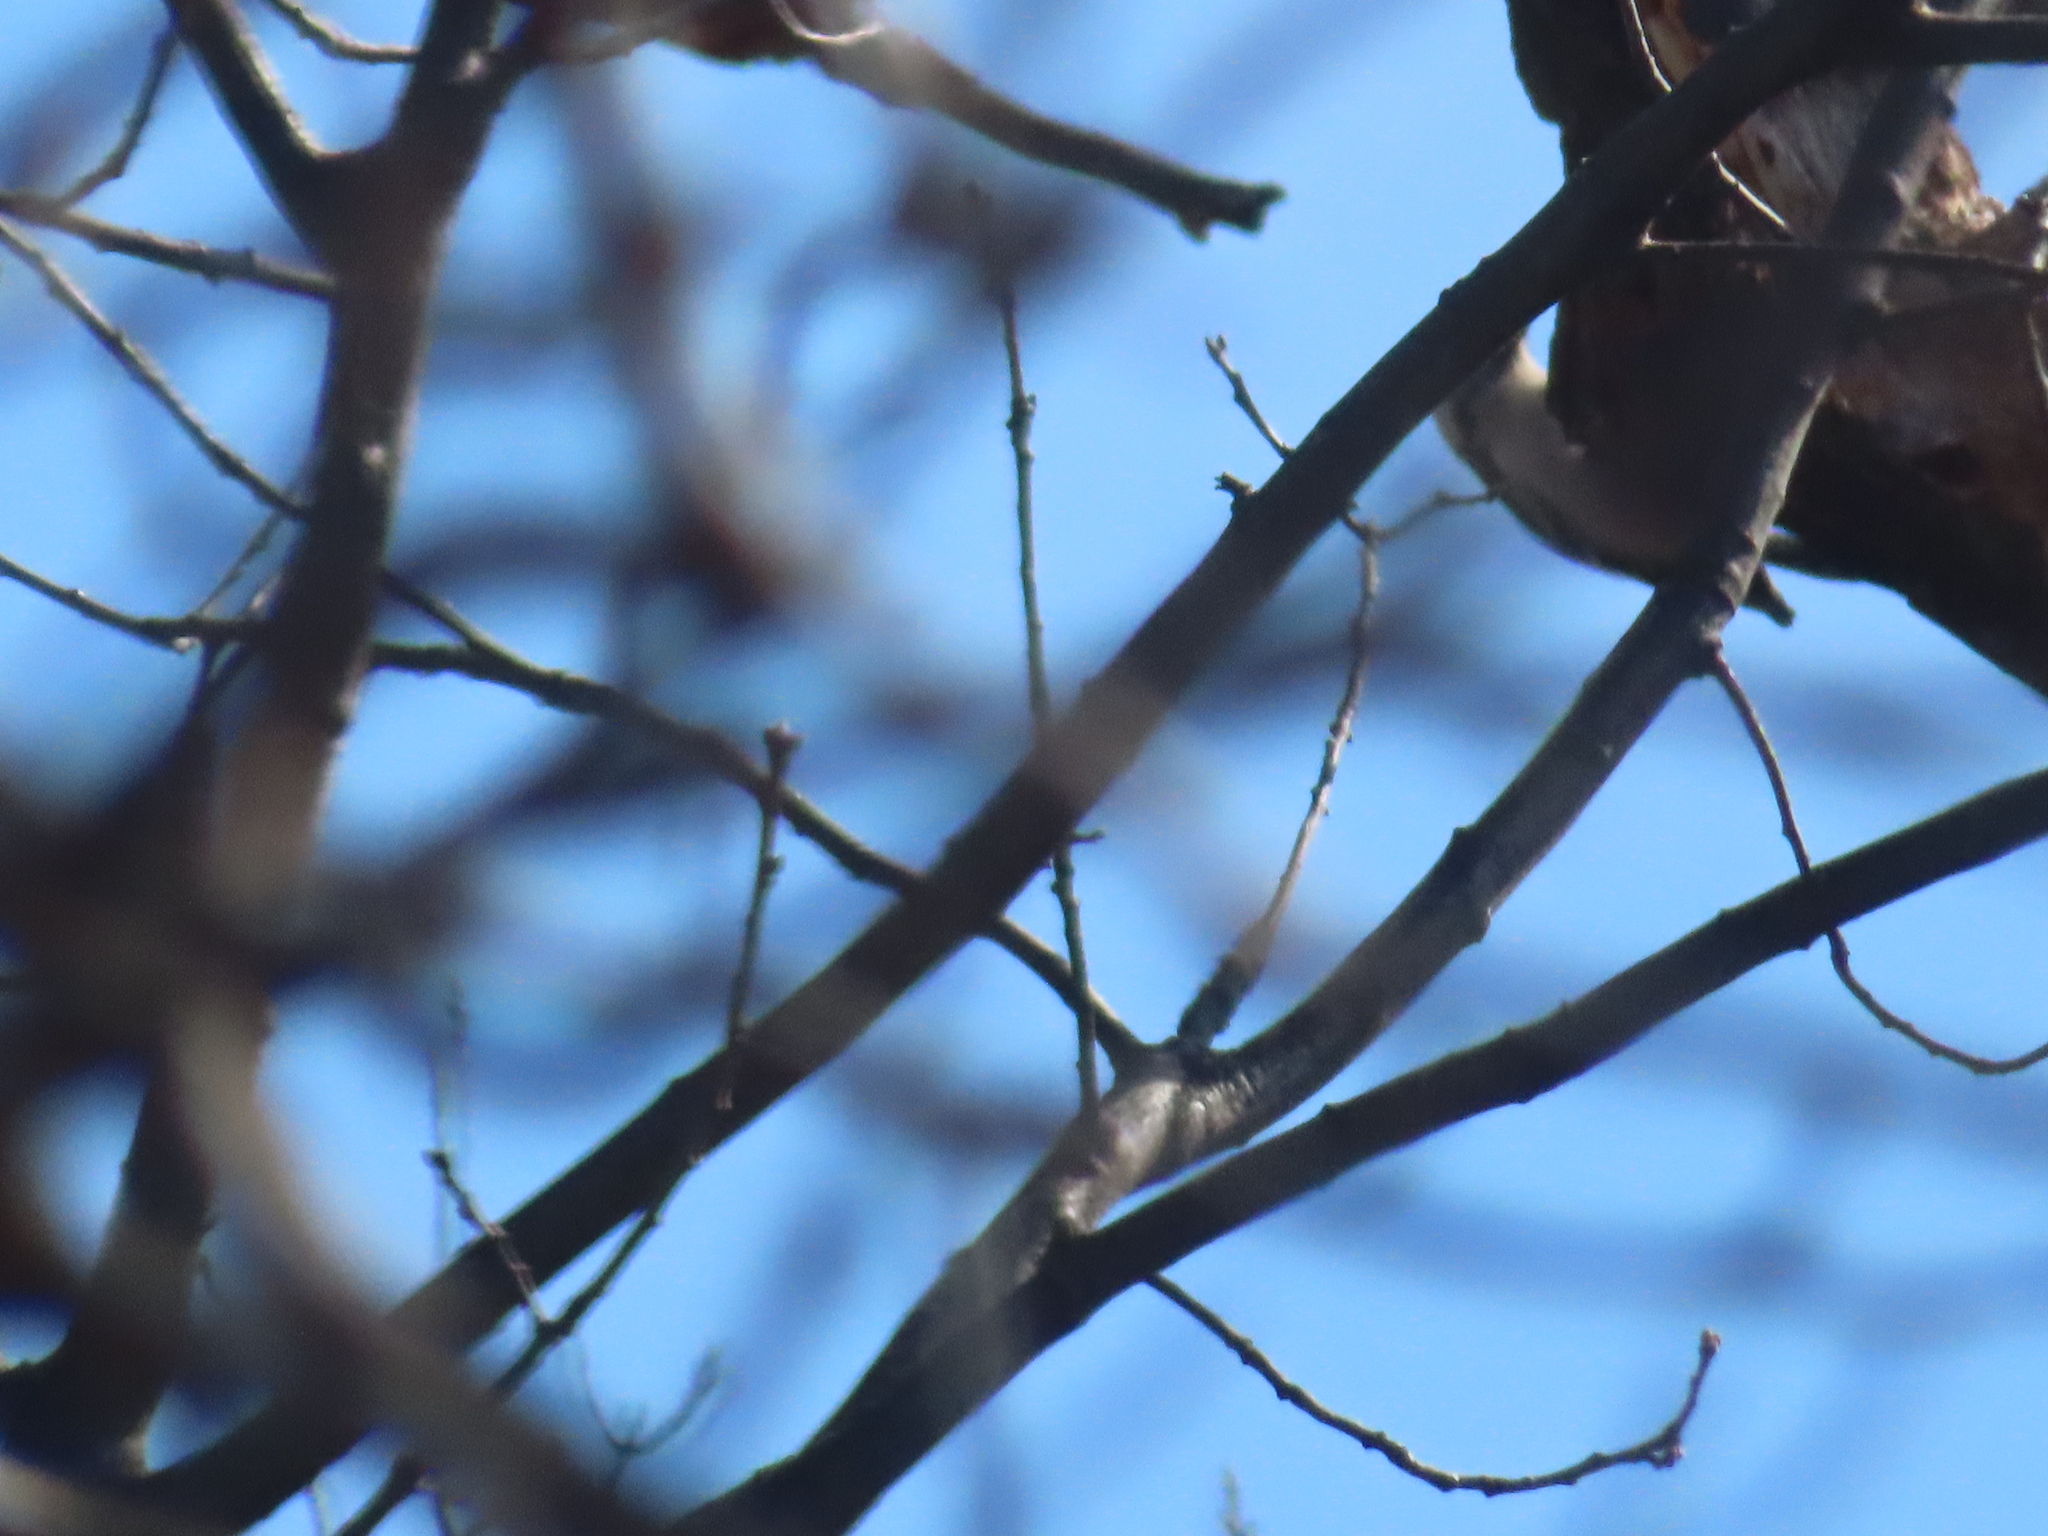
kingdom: Animalia
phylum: Chordata
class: Aves
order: Piciformes
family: Picidae
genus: Dryobates
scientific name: Dryobates pubescens
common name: Downy woodpecker
